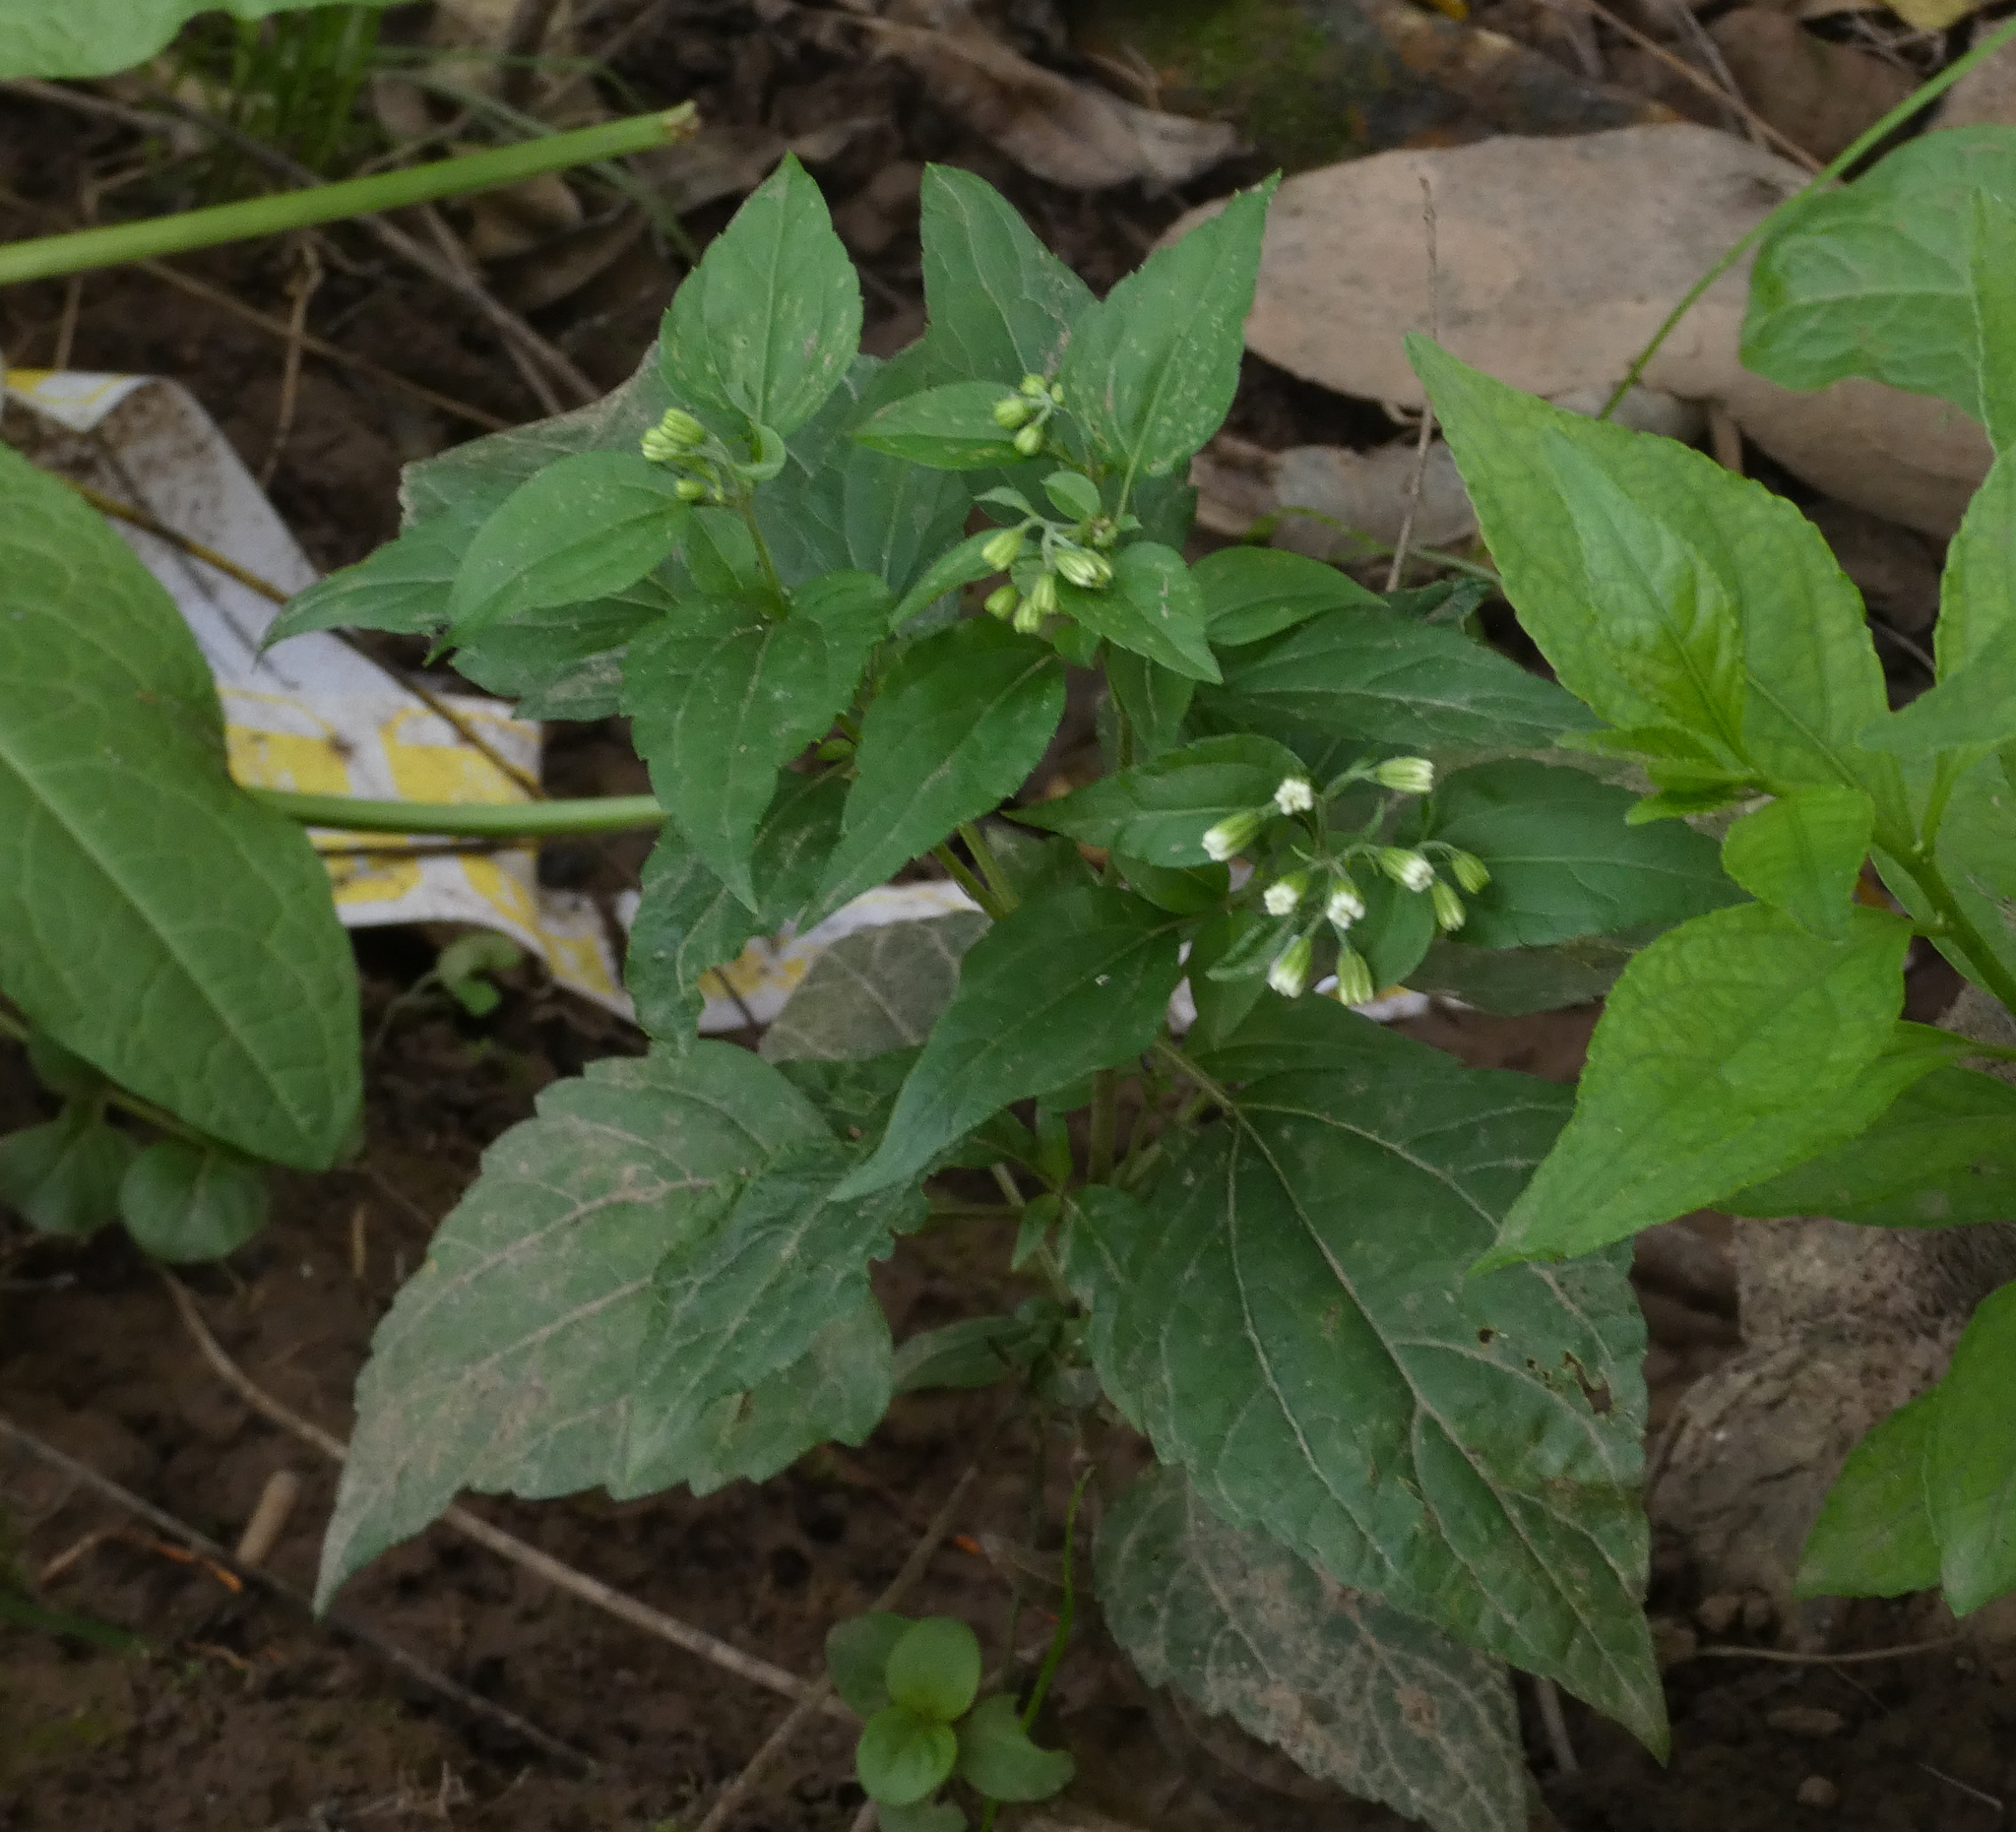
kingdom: Plantae
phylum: Tracheophyta
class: Magnoliopsida
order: Asterales
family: Asteraceae
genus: Ageratina
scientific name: Ageratina altissima
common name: White snakeroot
